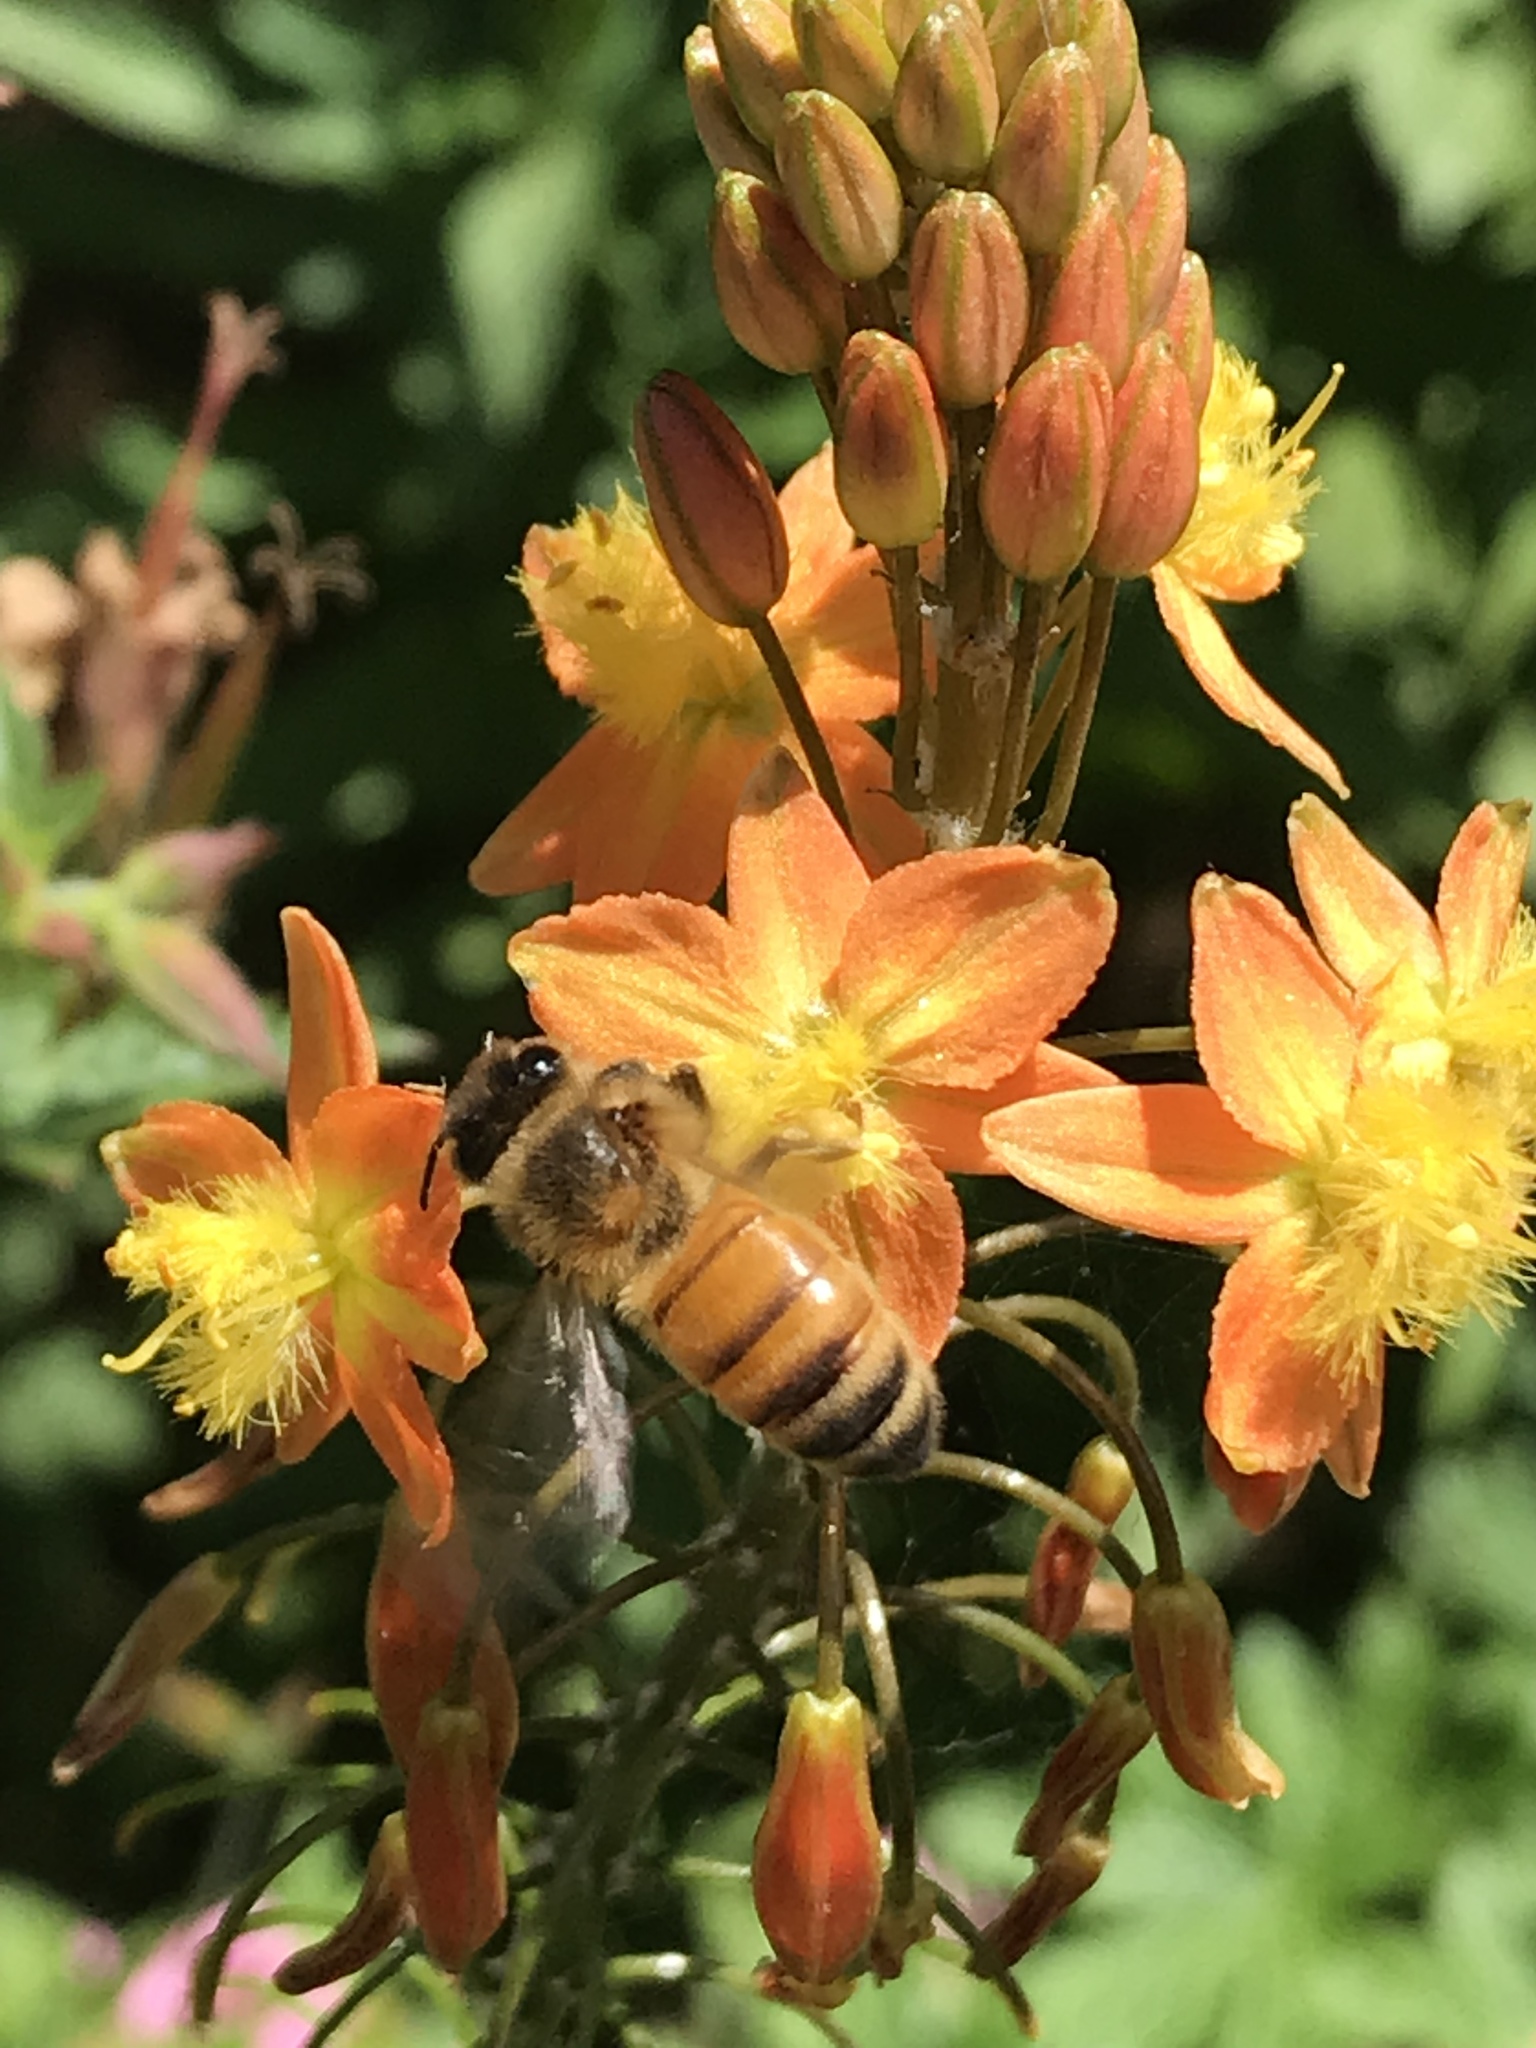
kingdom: Animalia
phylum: Arthropoda
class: Insecta
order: Hymenoptera
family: Apidae
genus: Apis
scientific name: Apis mellifera
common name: Honey bee
